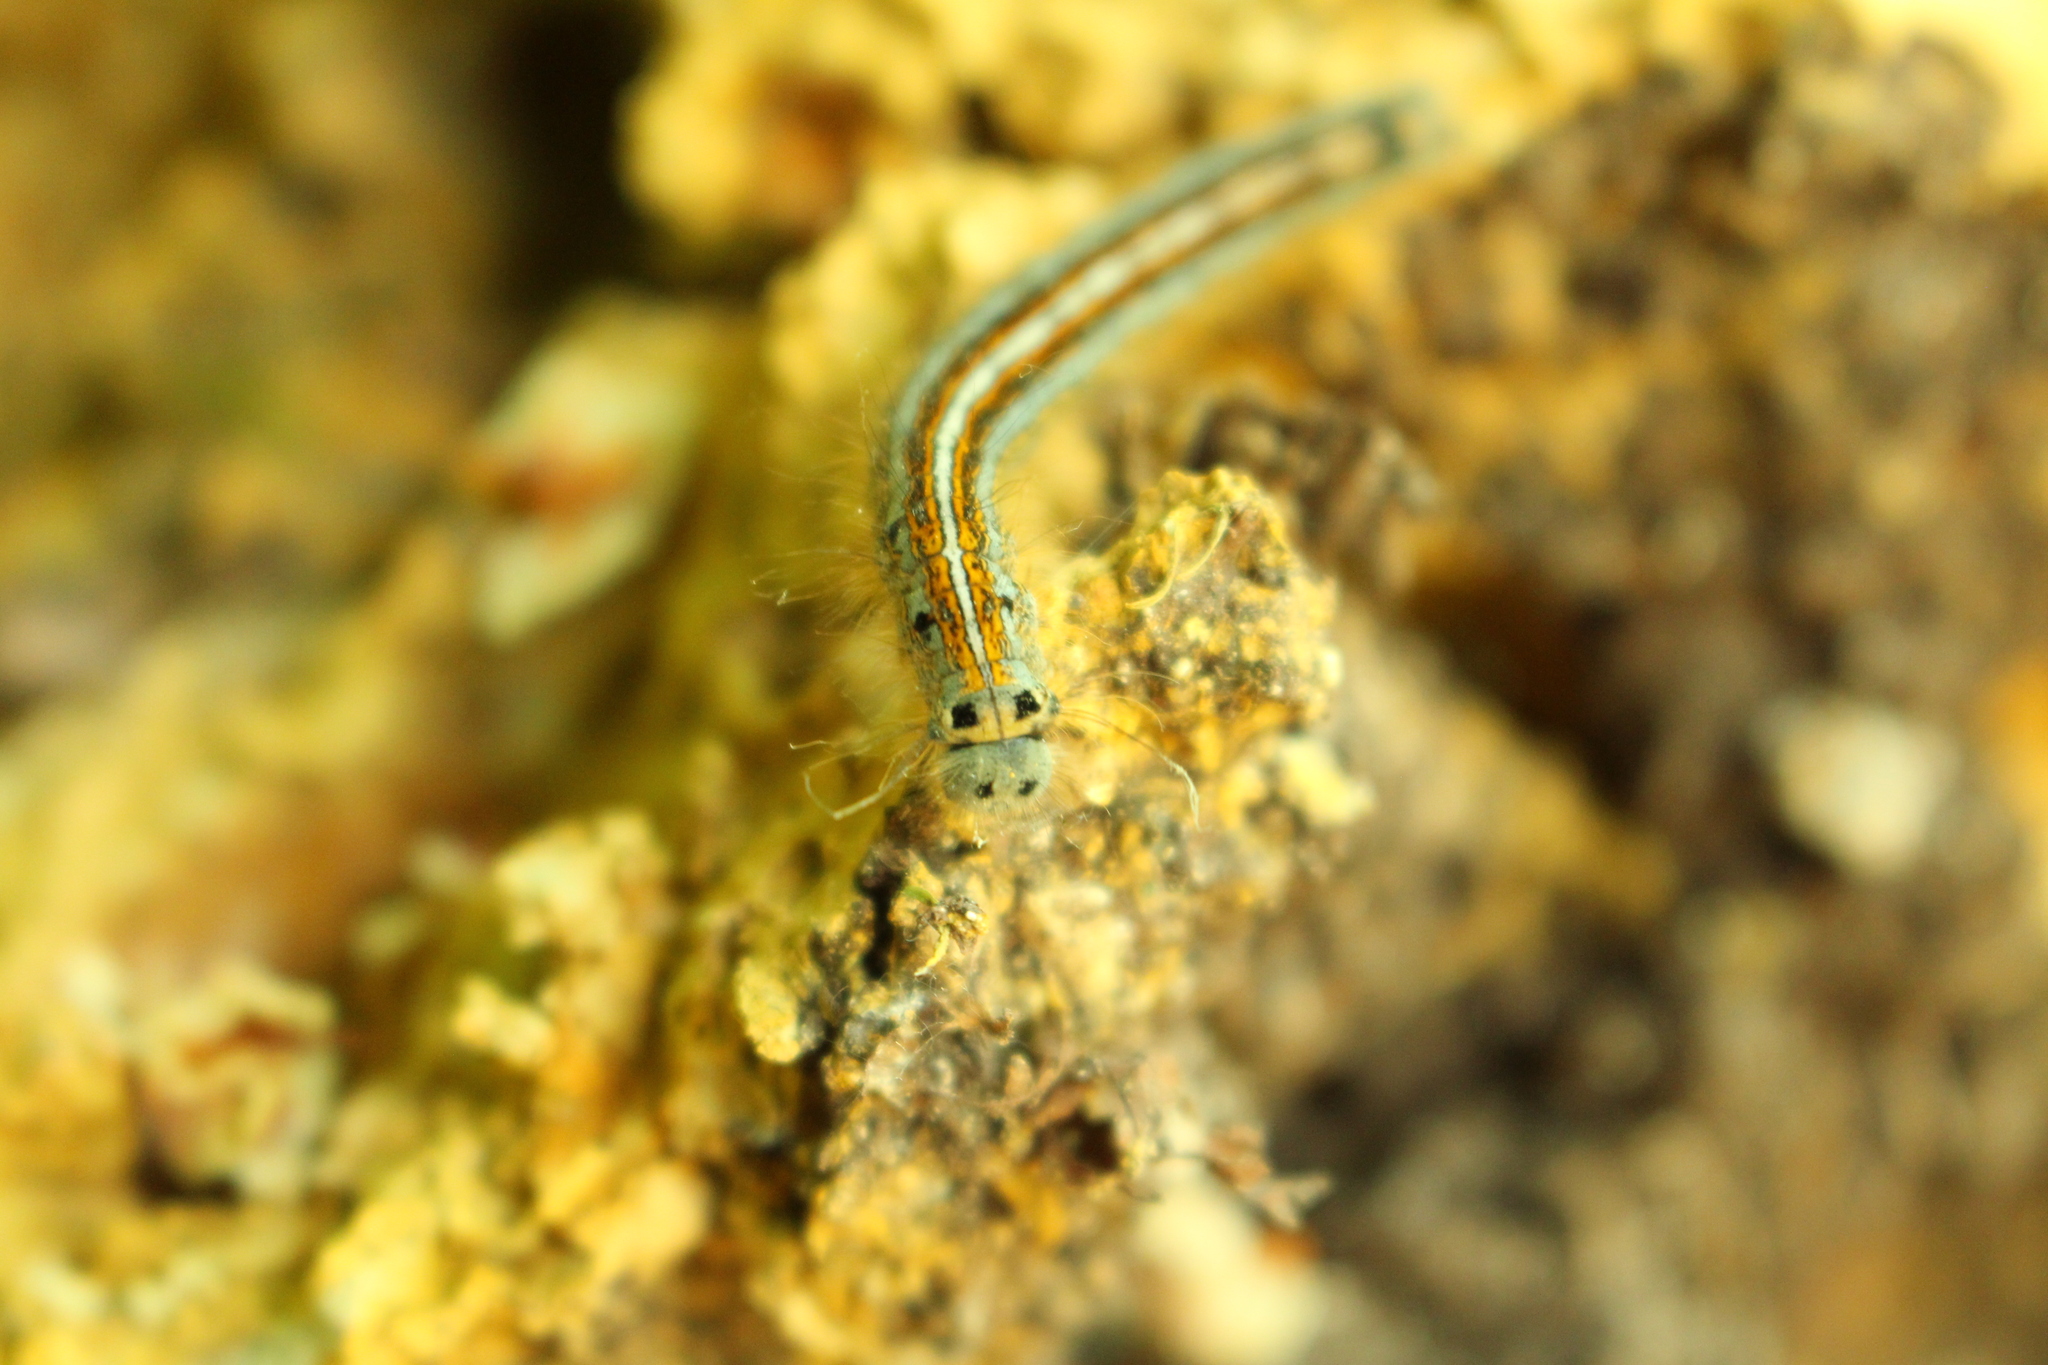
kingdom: Animalia
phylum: Arthropoda
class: Insecta
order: Lepidoptera
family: Lasiocampidae
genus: Malacosoma
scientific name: Malacosoma neustria
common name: The lackey
